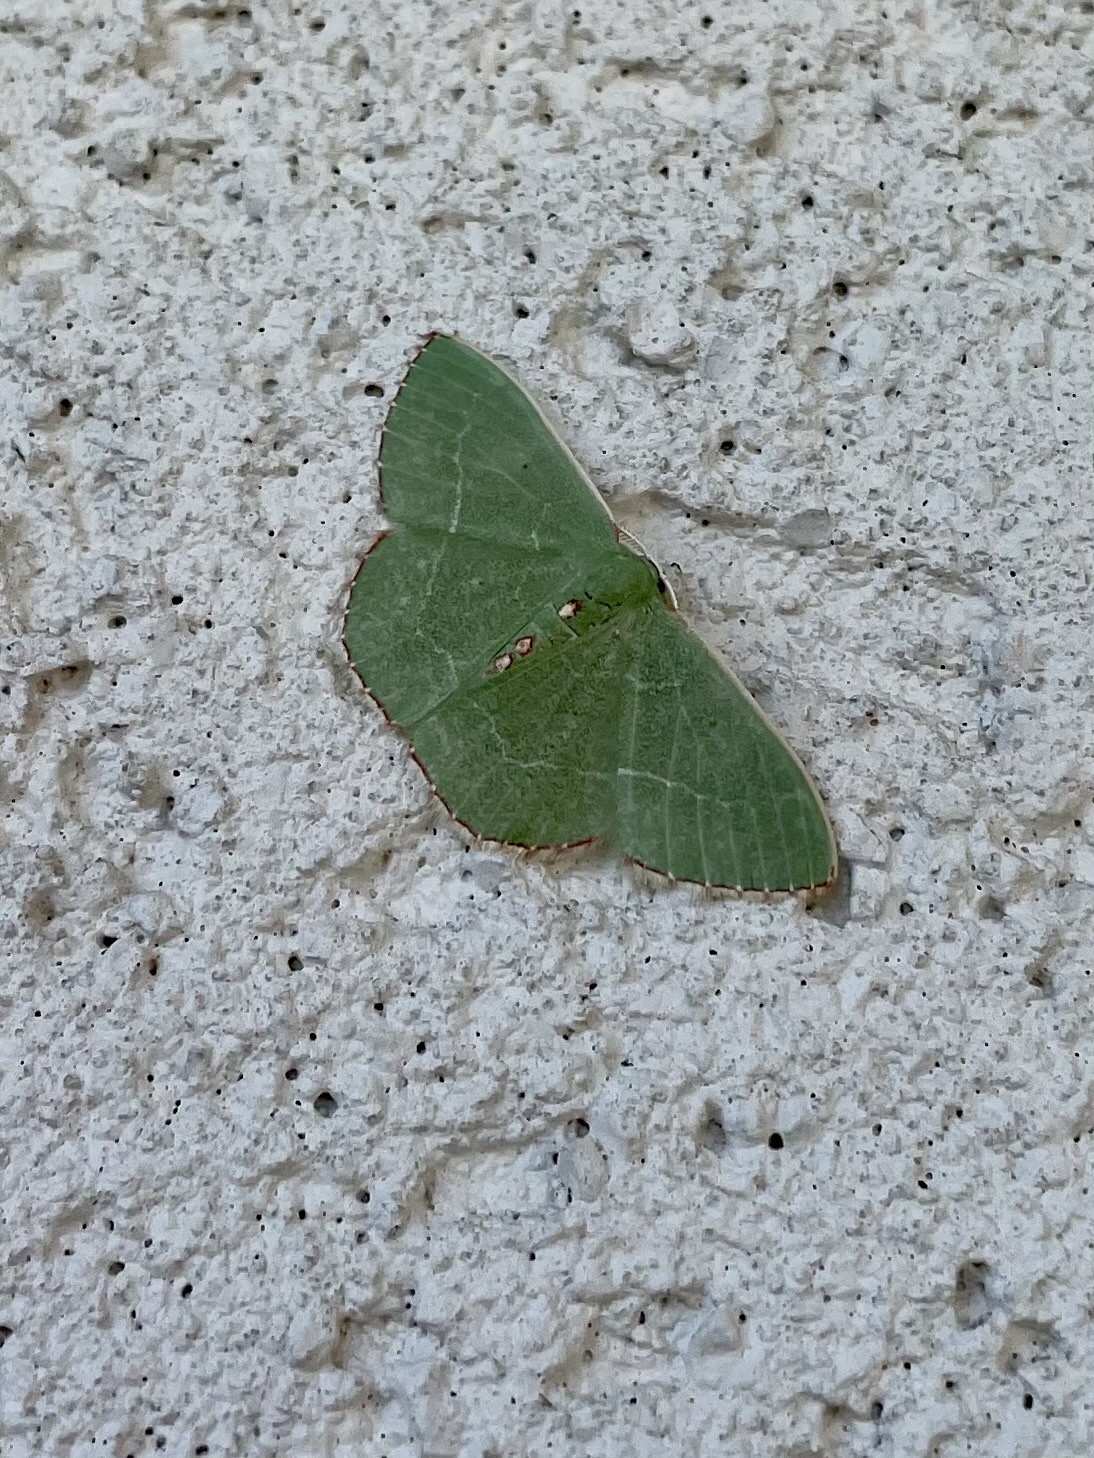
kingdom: Animalia
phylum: Arthropoda
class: Insecta
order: Lepidoptera
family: Geometridae
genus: Nemoria
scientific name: Nemoria bistriaria
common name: Red-fringed emerald
